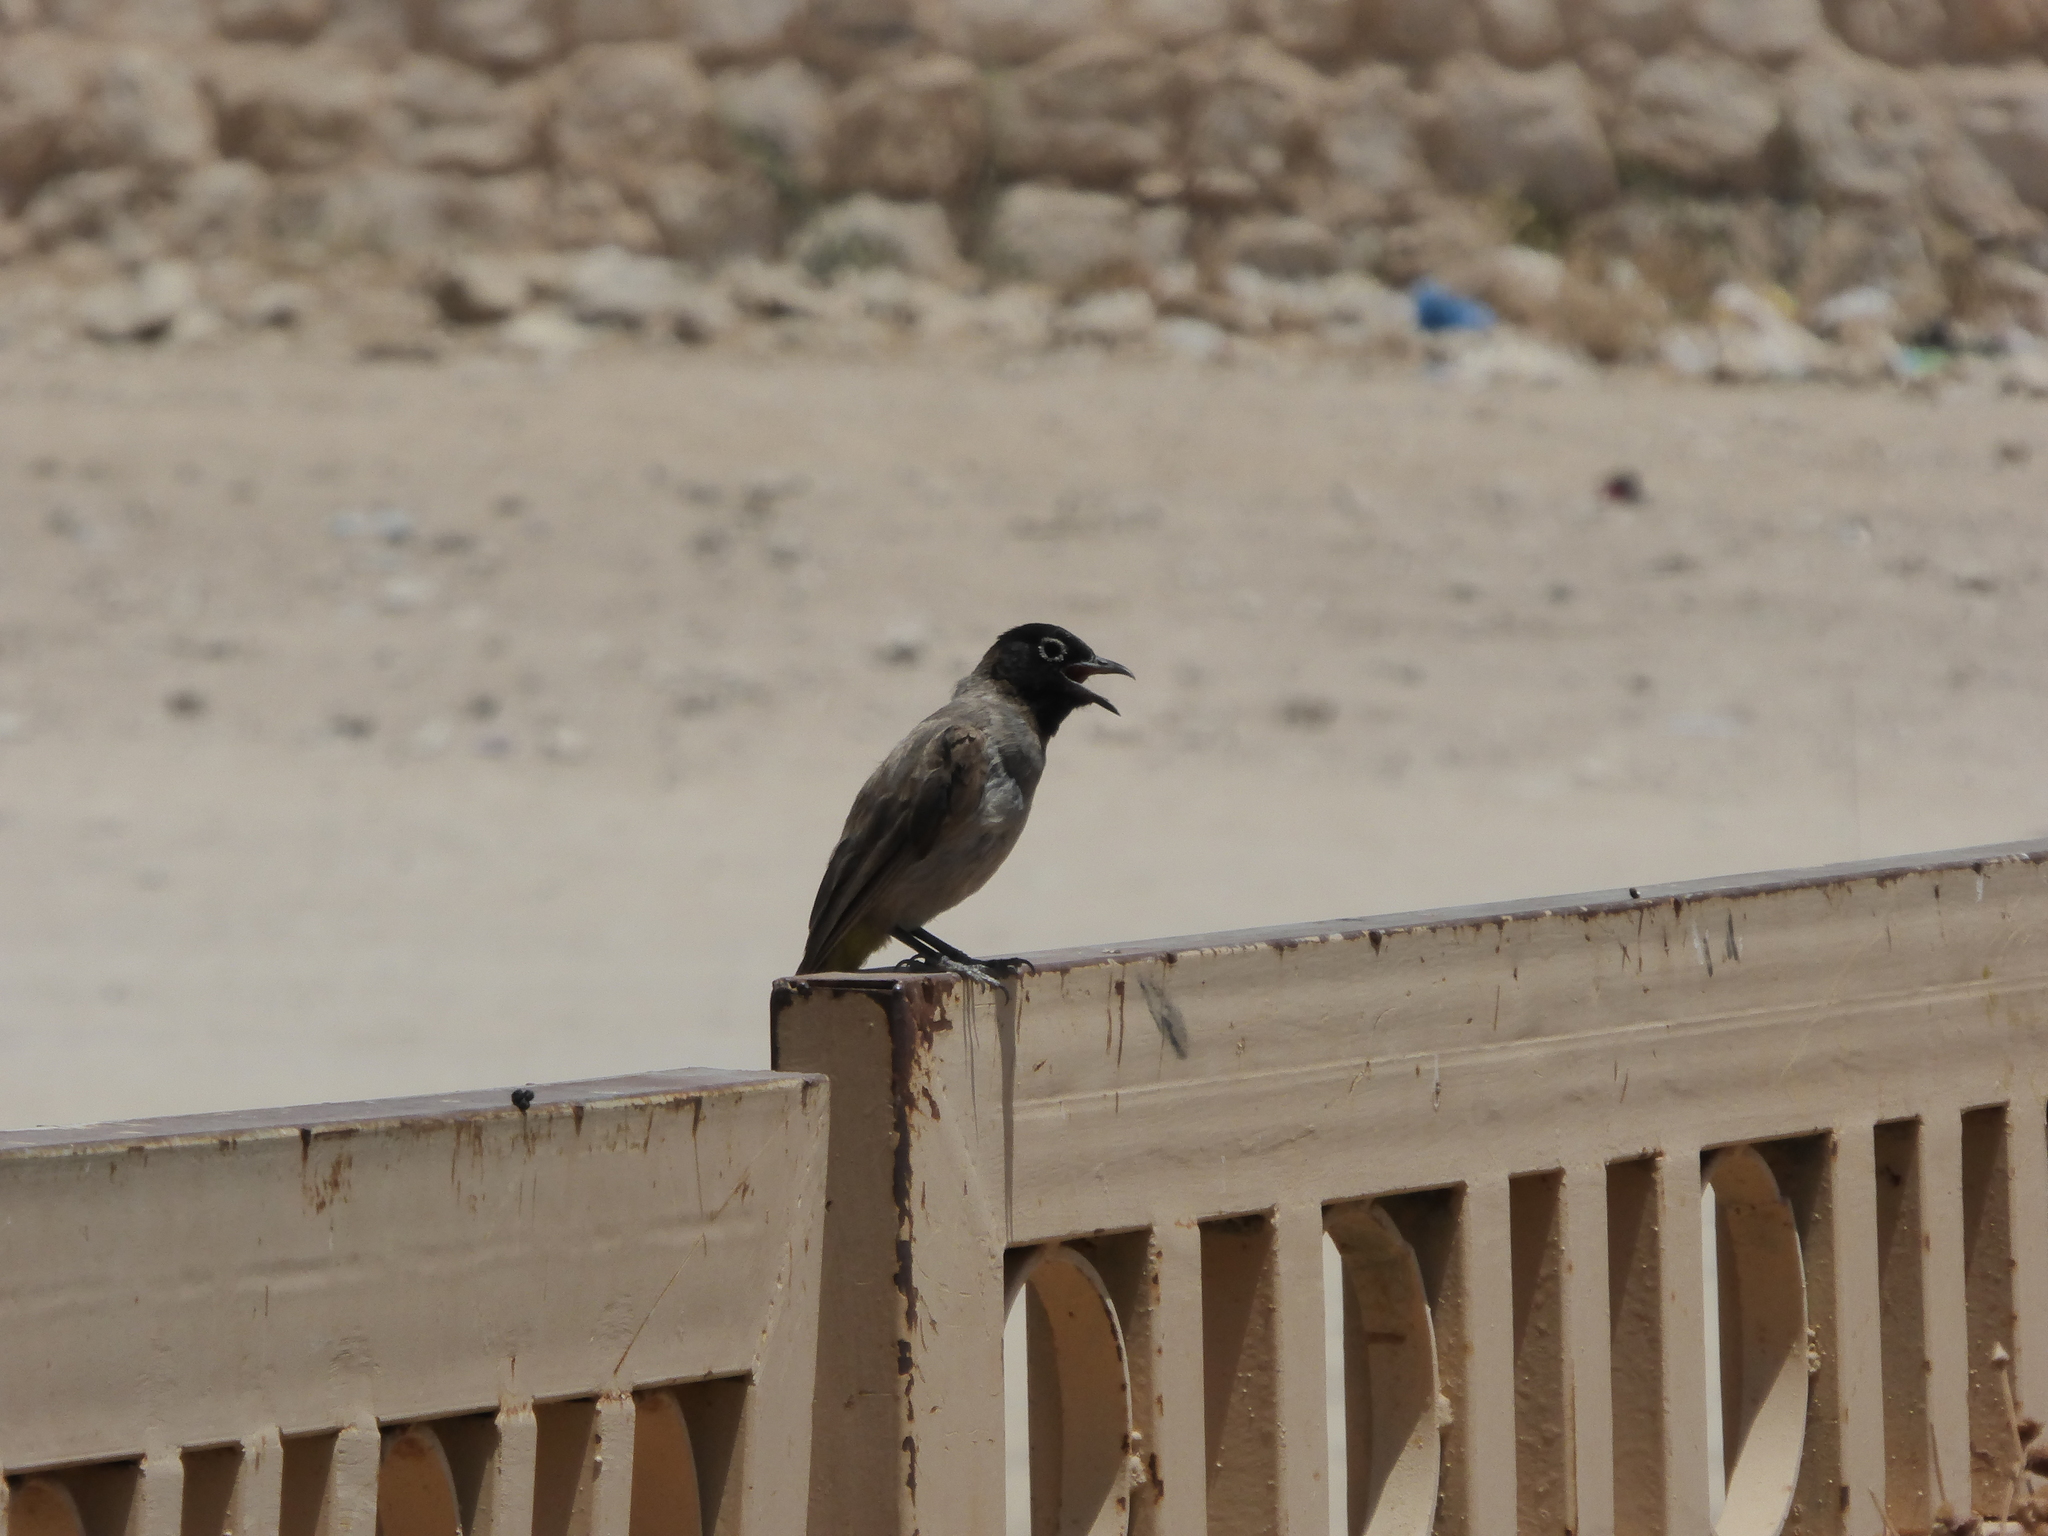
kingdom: Animalia
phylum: Chordata
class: Aves
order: Passeriformes
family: Pycnonotidae
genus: Pycnonotus
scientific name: Pycnonotus xanthopygos
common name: White-spectacled bulbul
